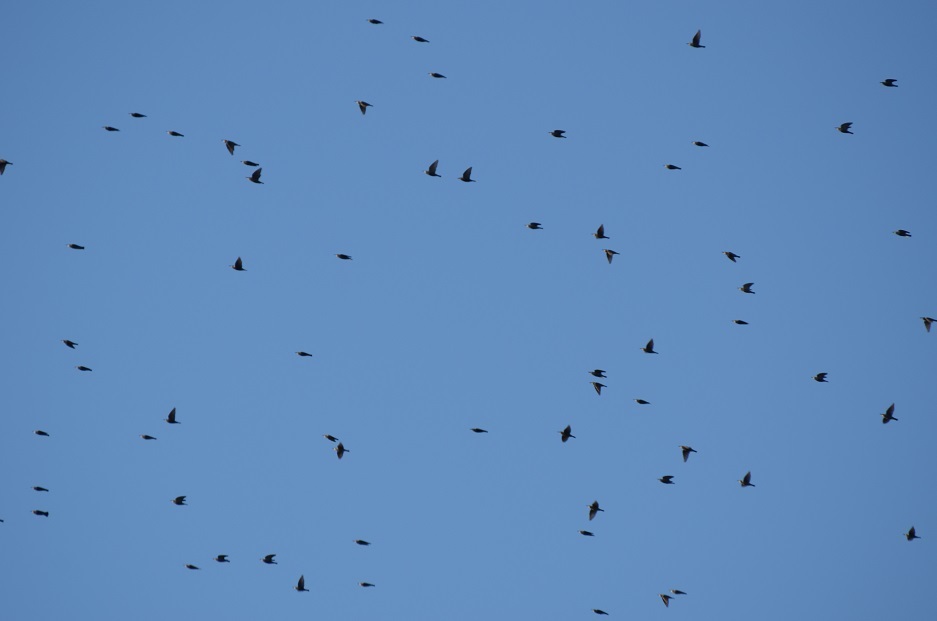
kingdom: Animalia
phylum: Chordata
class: Aves
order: Coraciiformes
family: Meropidae
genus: Merops
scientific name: Merops apiaster
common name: European bee-eater
